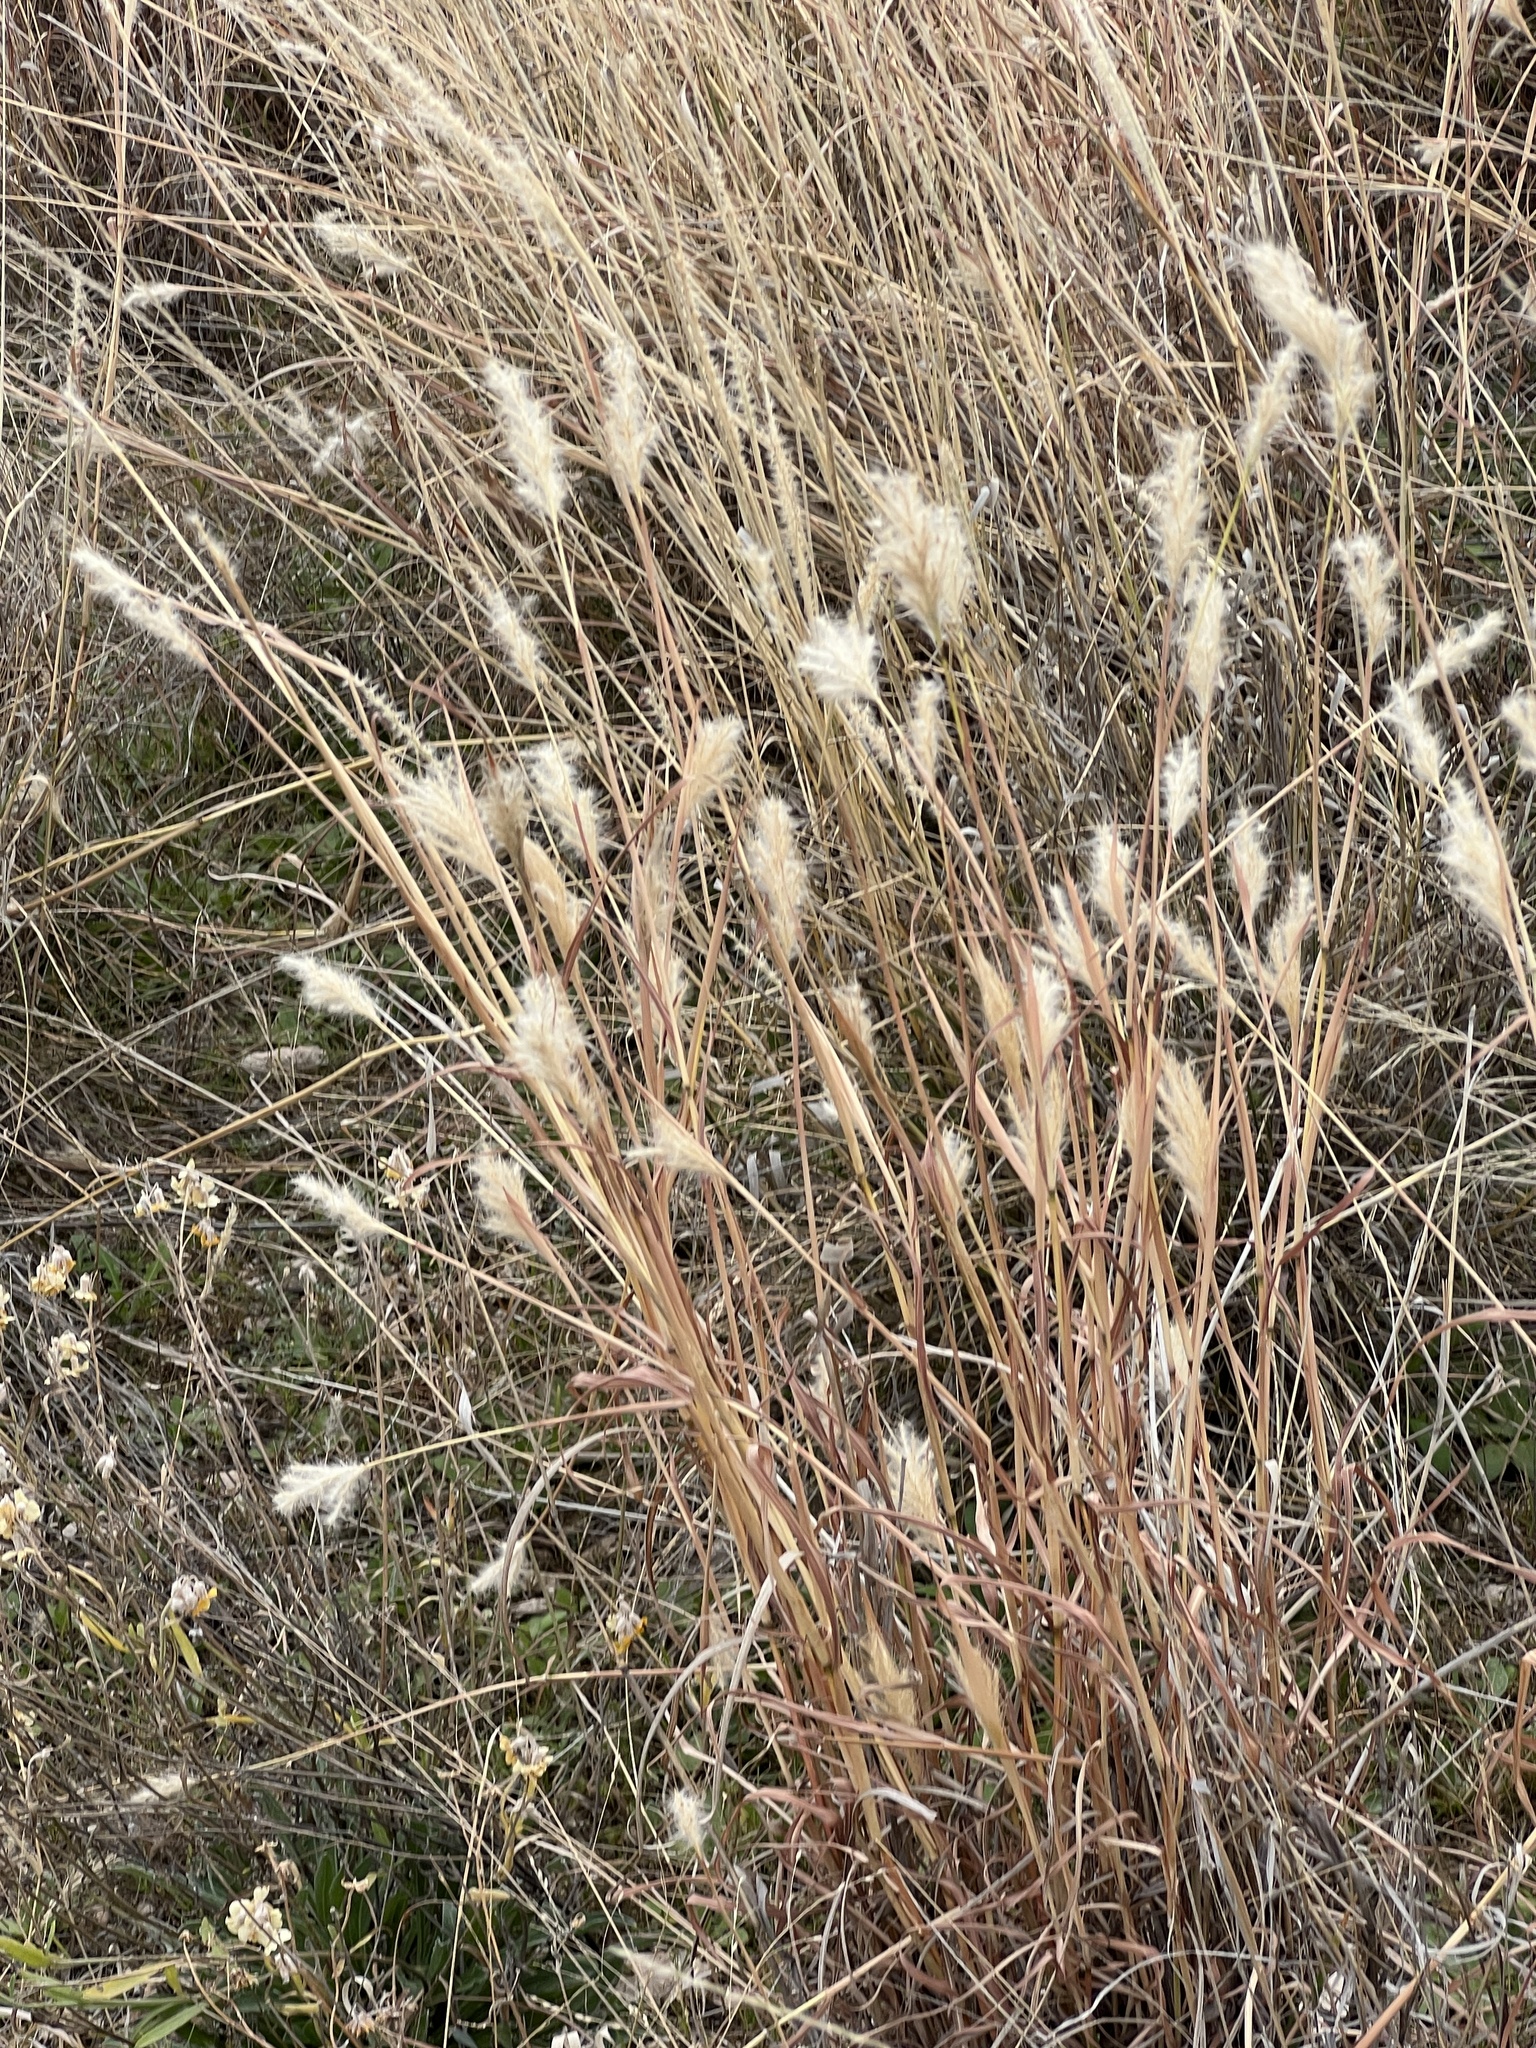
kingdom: Plantae
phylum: Tracheophyta
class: Liliopsida
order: Poales
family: Poaceae
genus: Bothriochloa
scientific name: Bothriochloa barbinodis
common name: Cane bluestem
